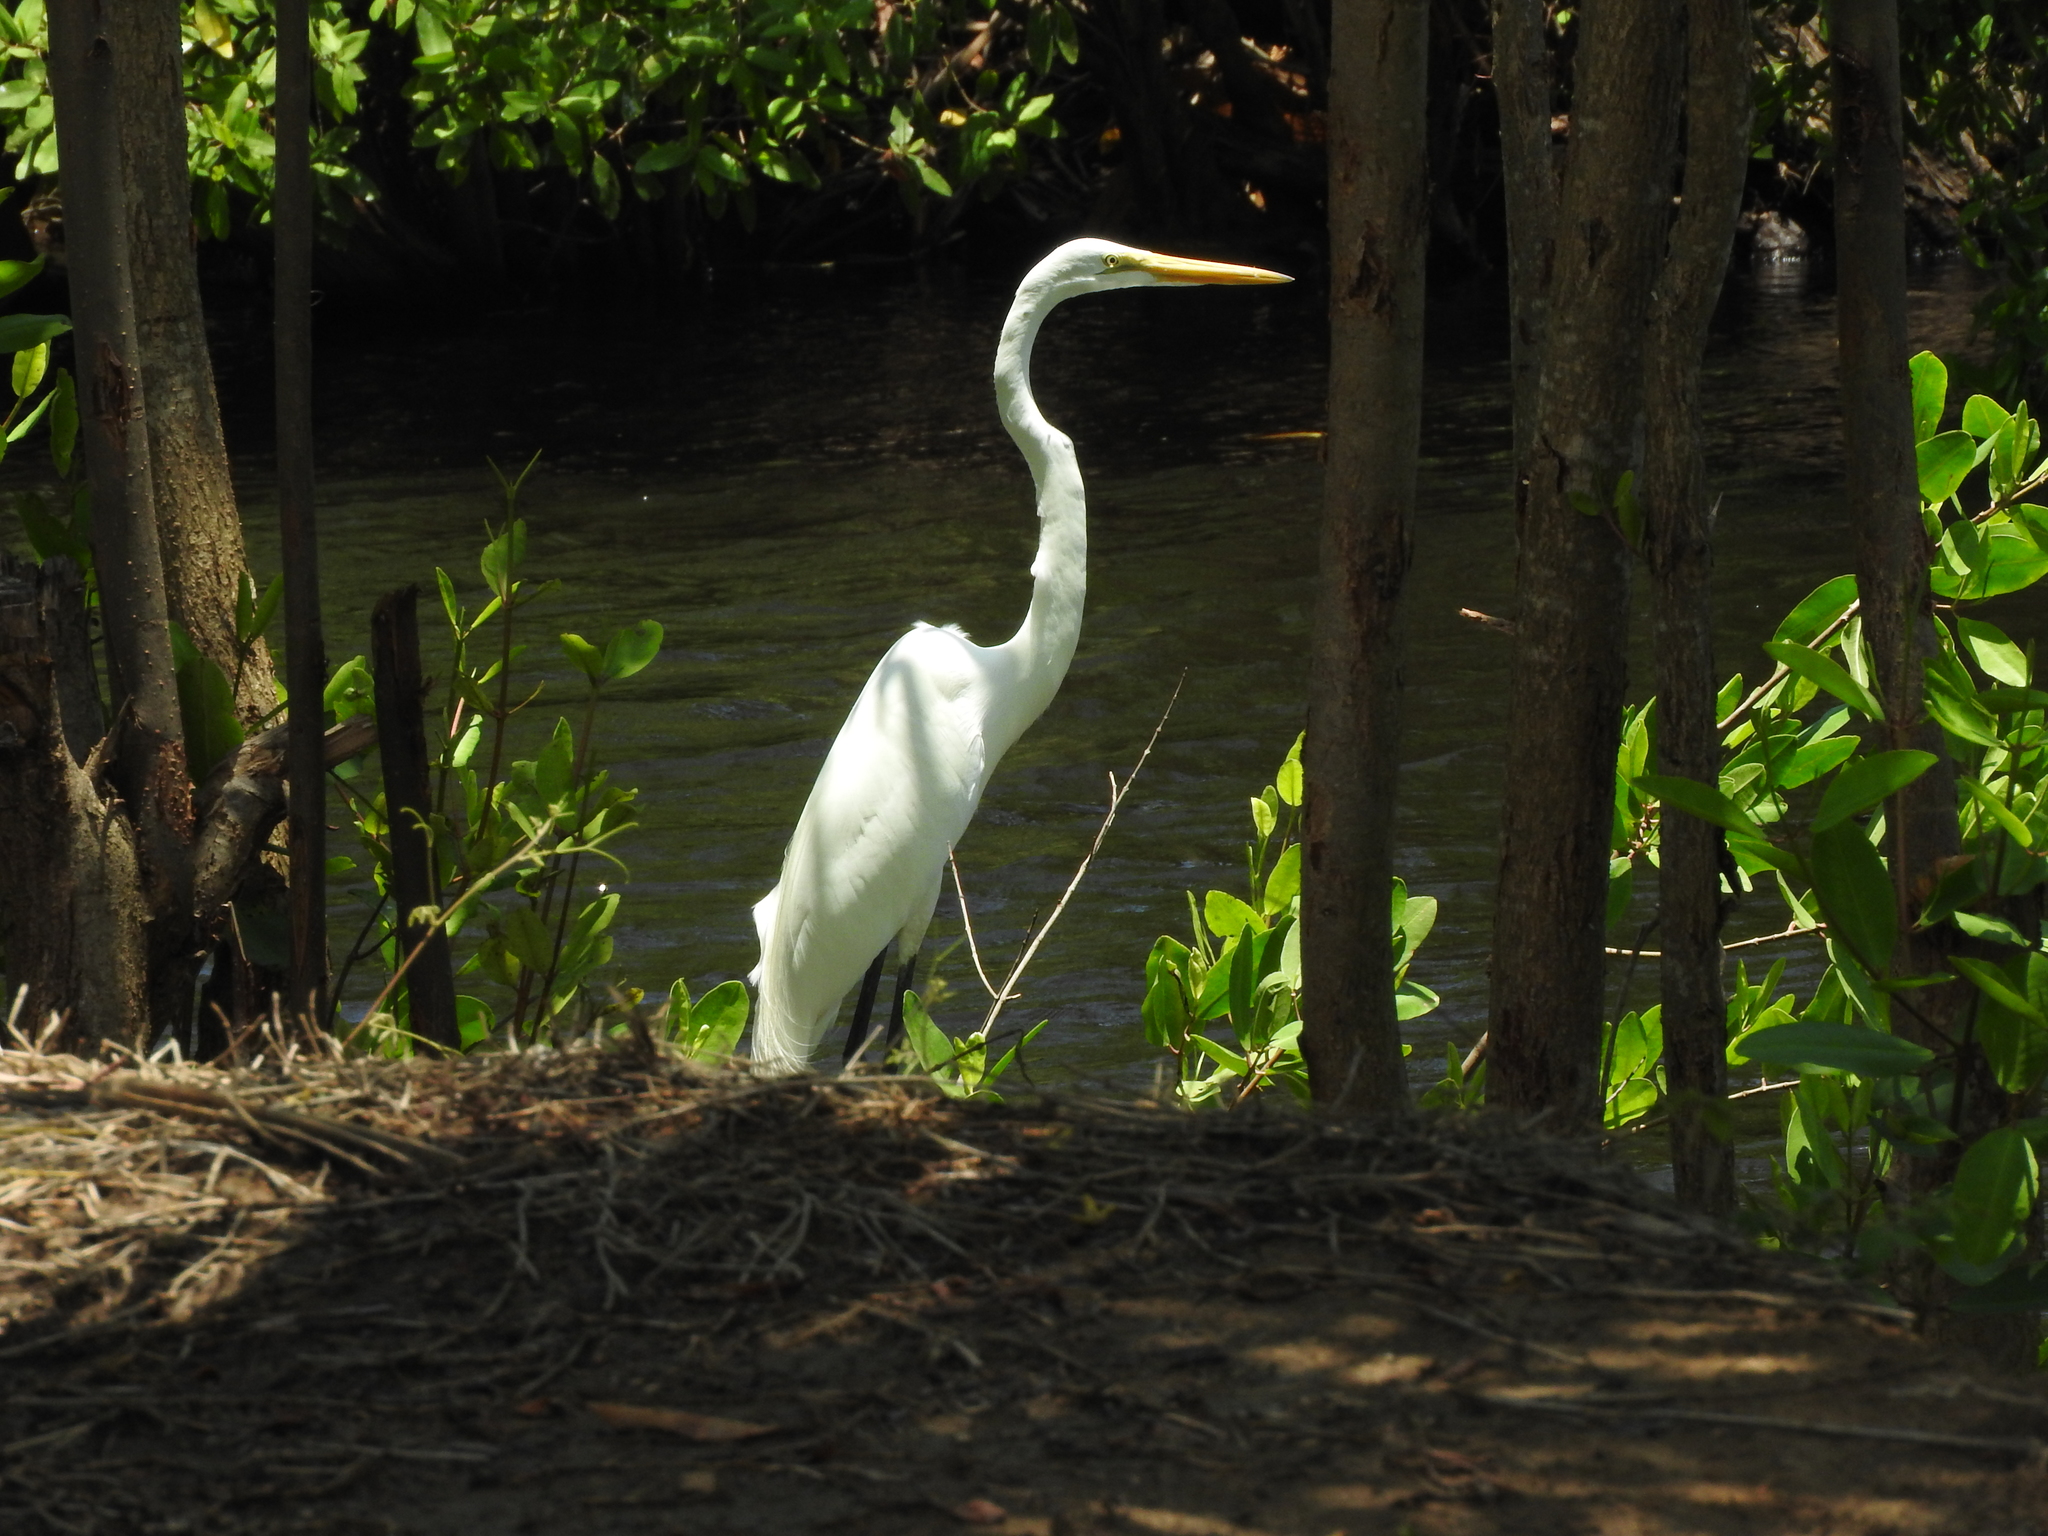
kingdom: Animalia
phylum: Chordata
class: Aves
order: Pelecaniformes
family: Ardeidae
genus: Ardea
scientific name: Ardea alba
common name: Great egret
